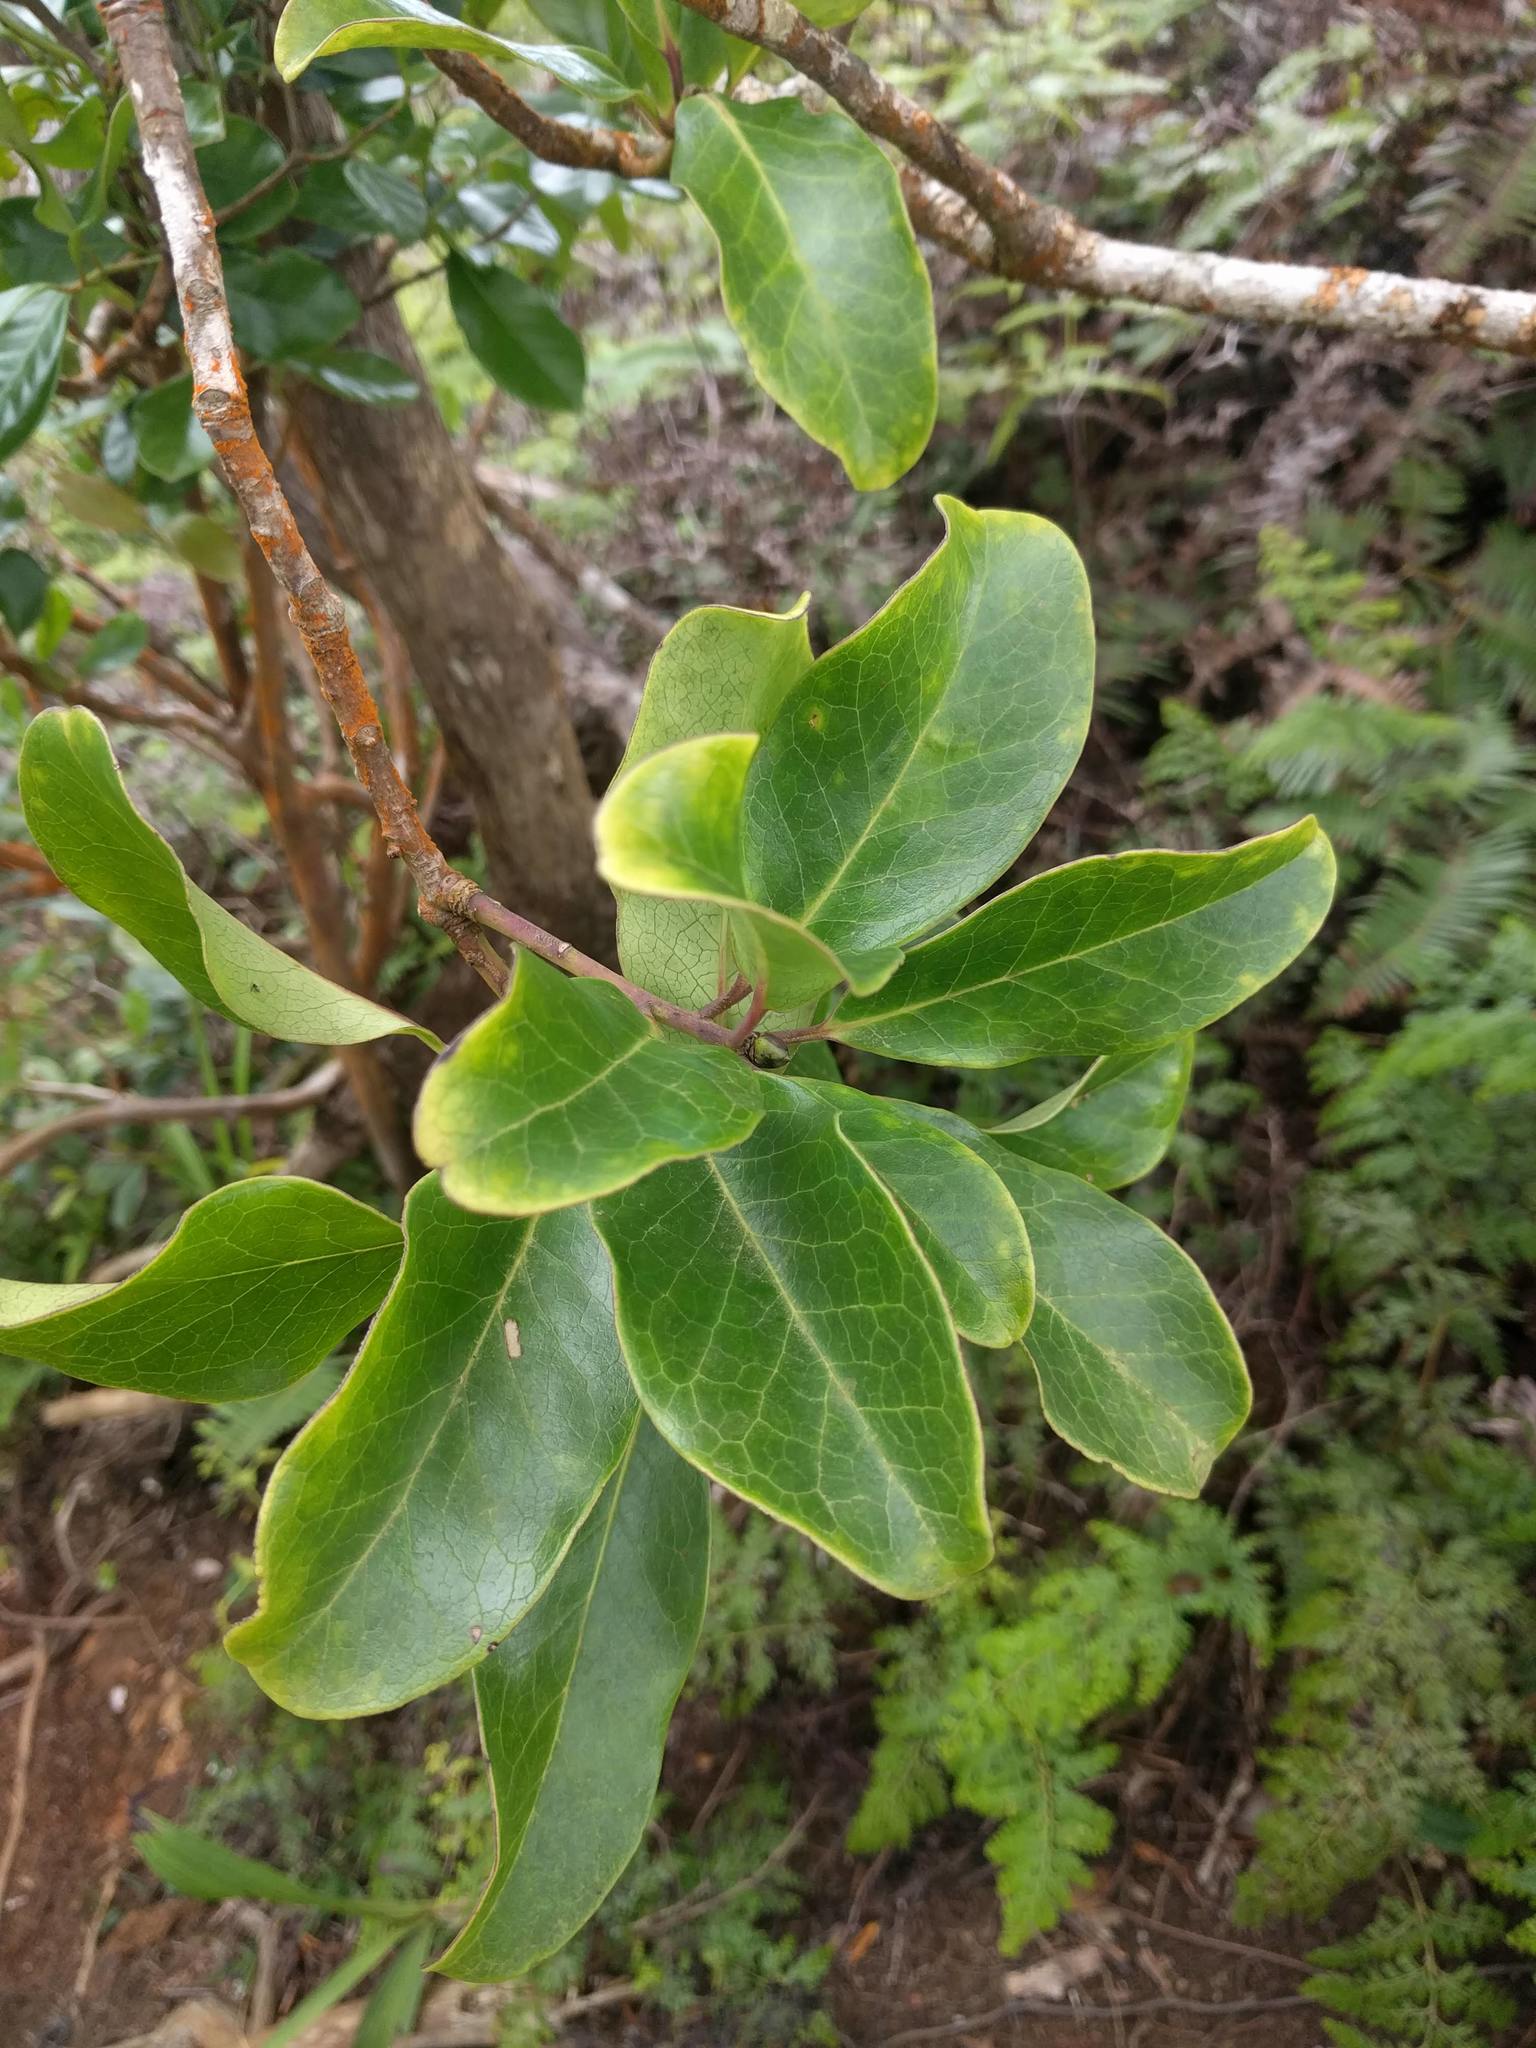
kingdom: Plantae
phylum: Tracheophyta
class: Magnoliopsida
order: Aquifoliales
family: Aquifoliaceae
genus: Ilex
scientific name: Ilex anomala
